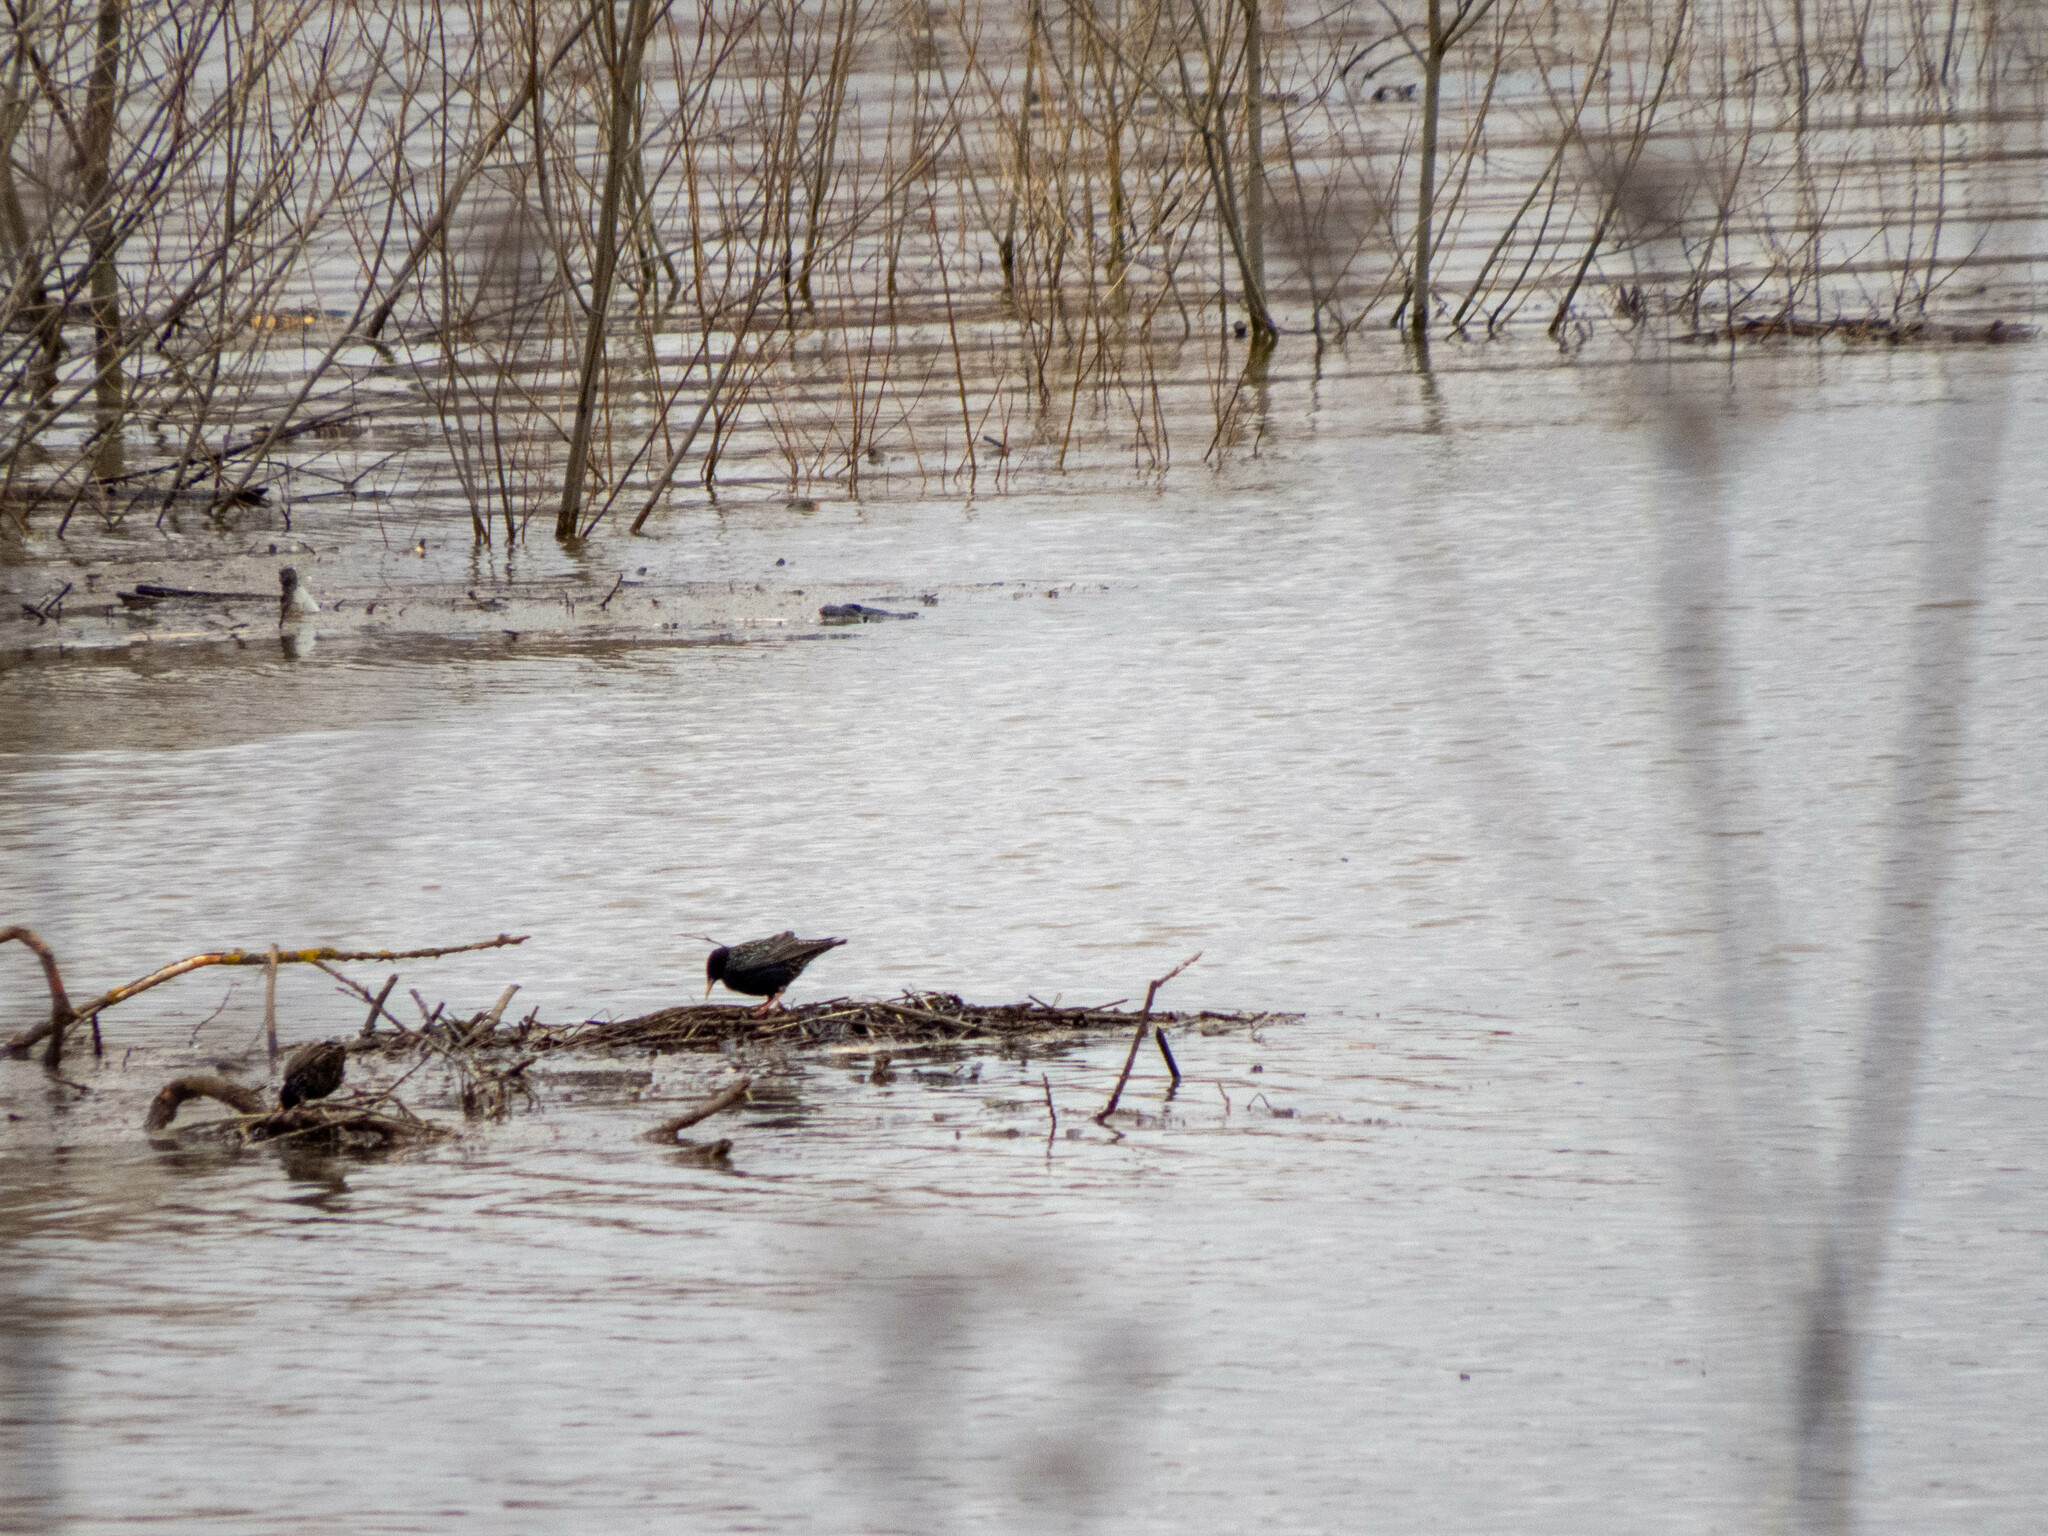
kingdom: Animalia
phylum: Chordata
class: Aves
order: Passeriformes
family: Sturnidae
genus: Sturnus
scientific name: Sturnus vulgaris
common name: Common starling
